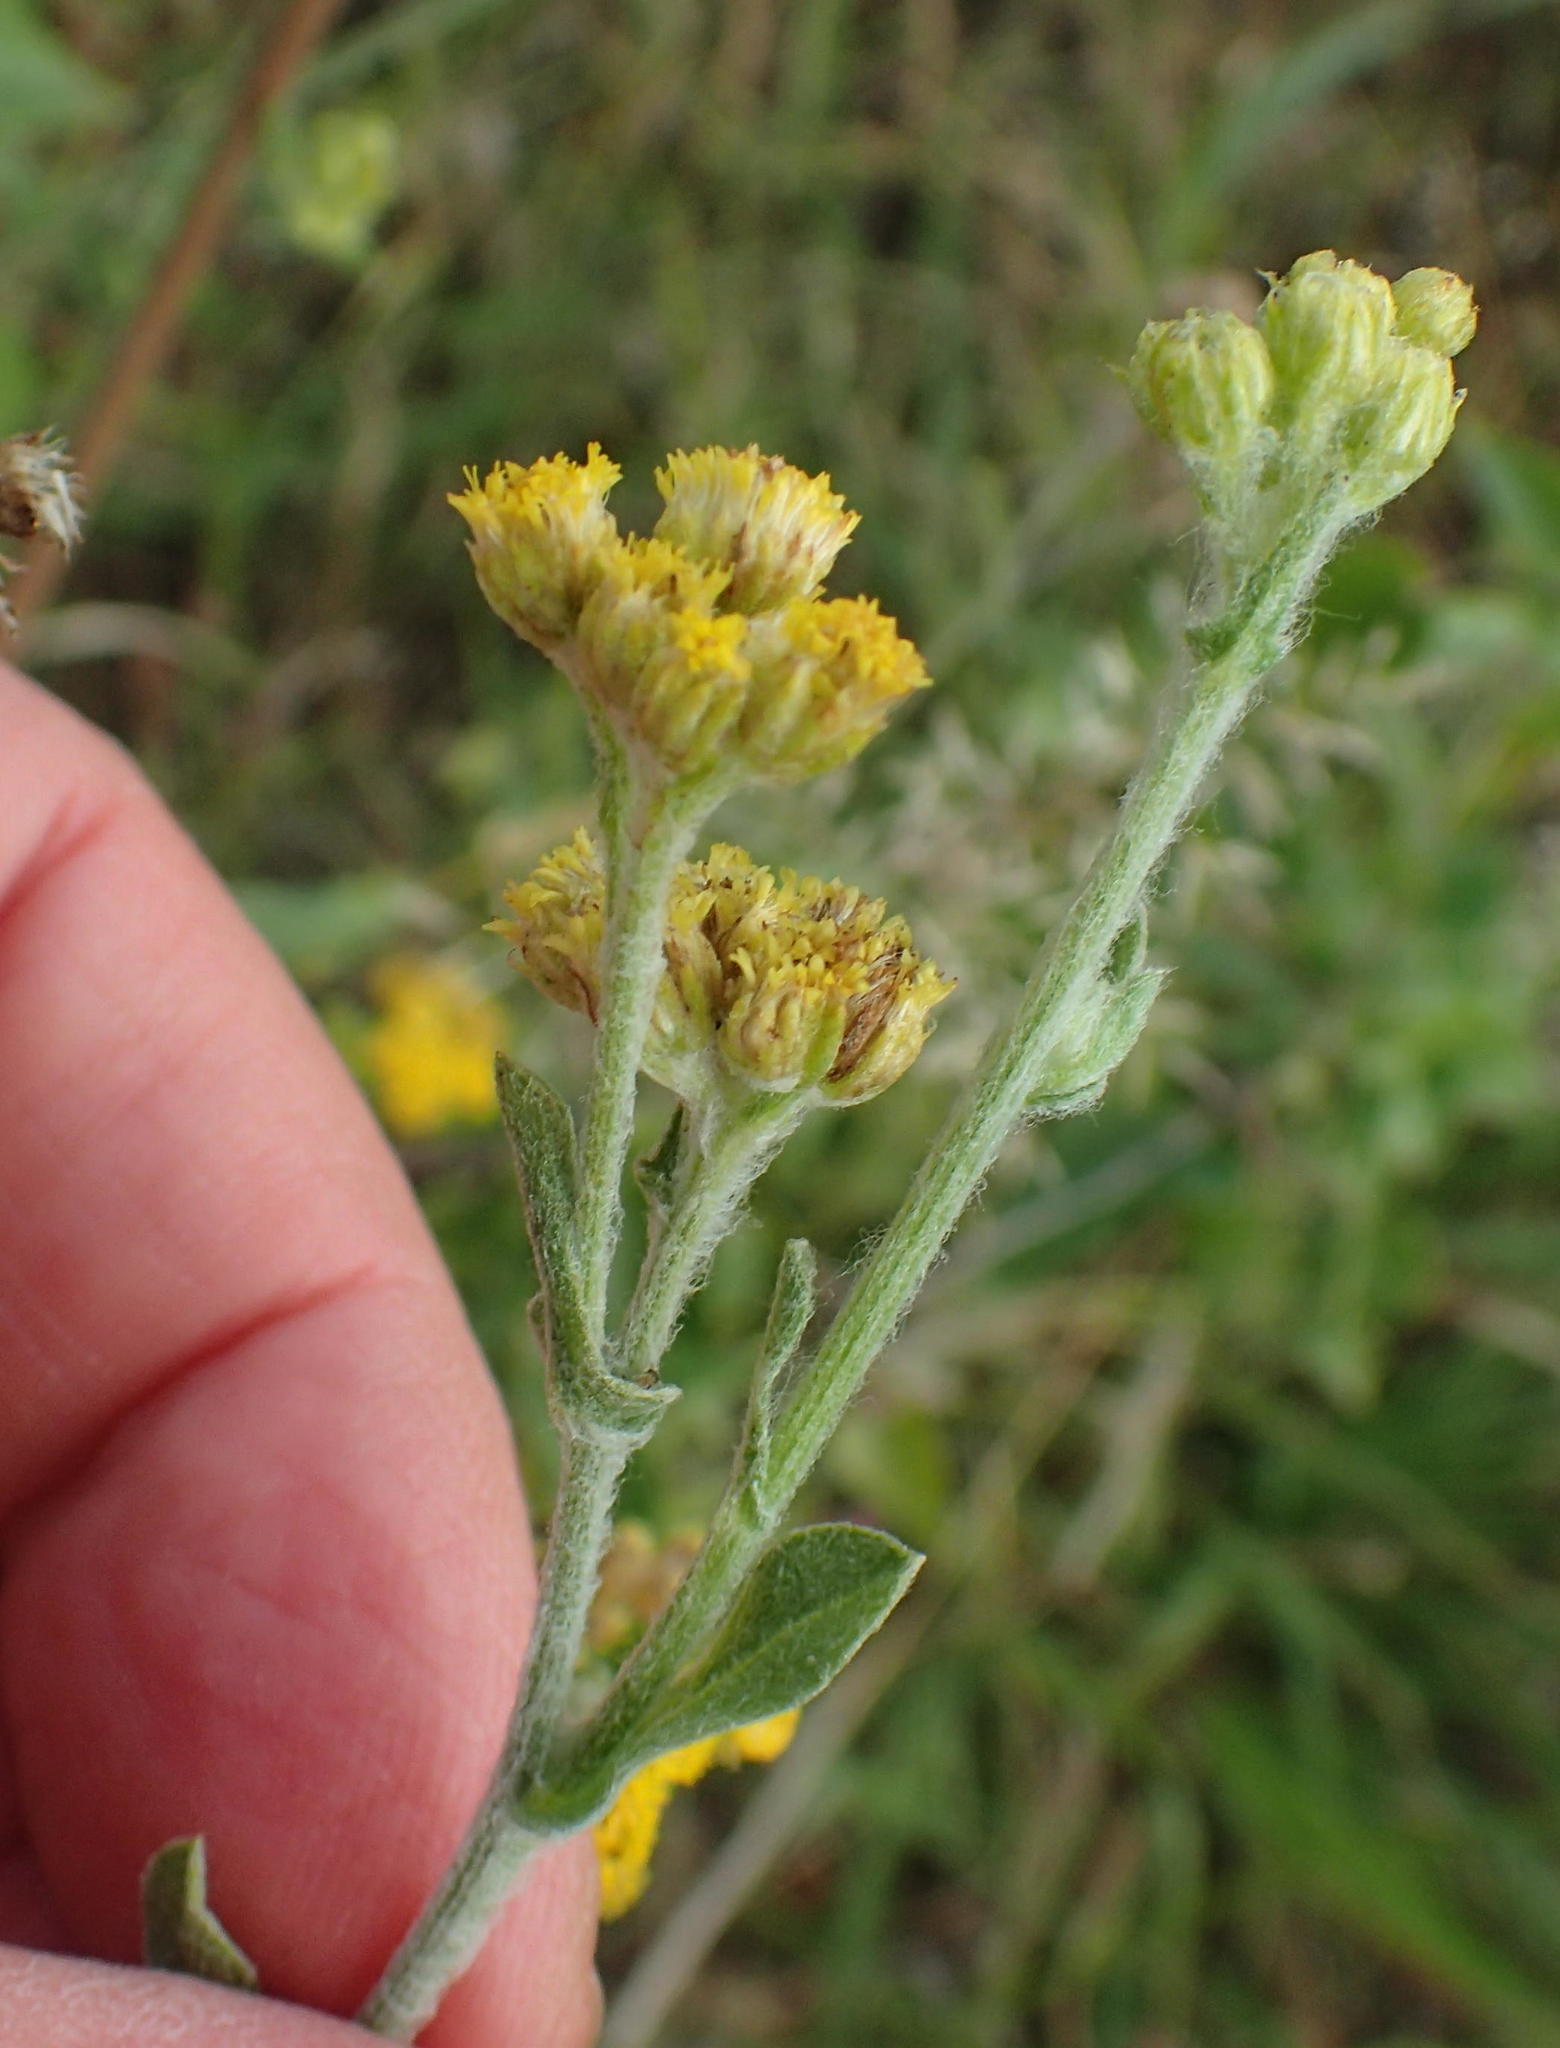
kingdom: Plantae
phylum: Tracheophyta
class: Magnoliopsida
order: Asterales
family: Asteraceae
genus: Nidorella
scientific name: Nidorella hottentotica
